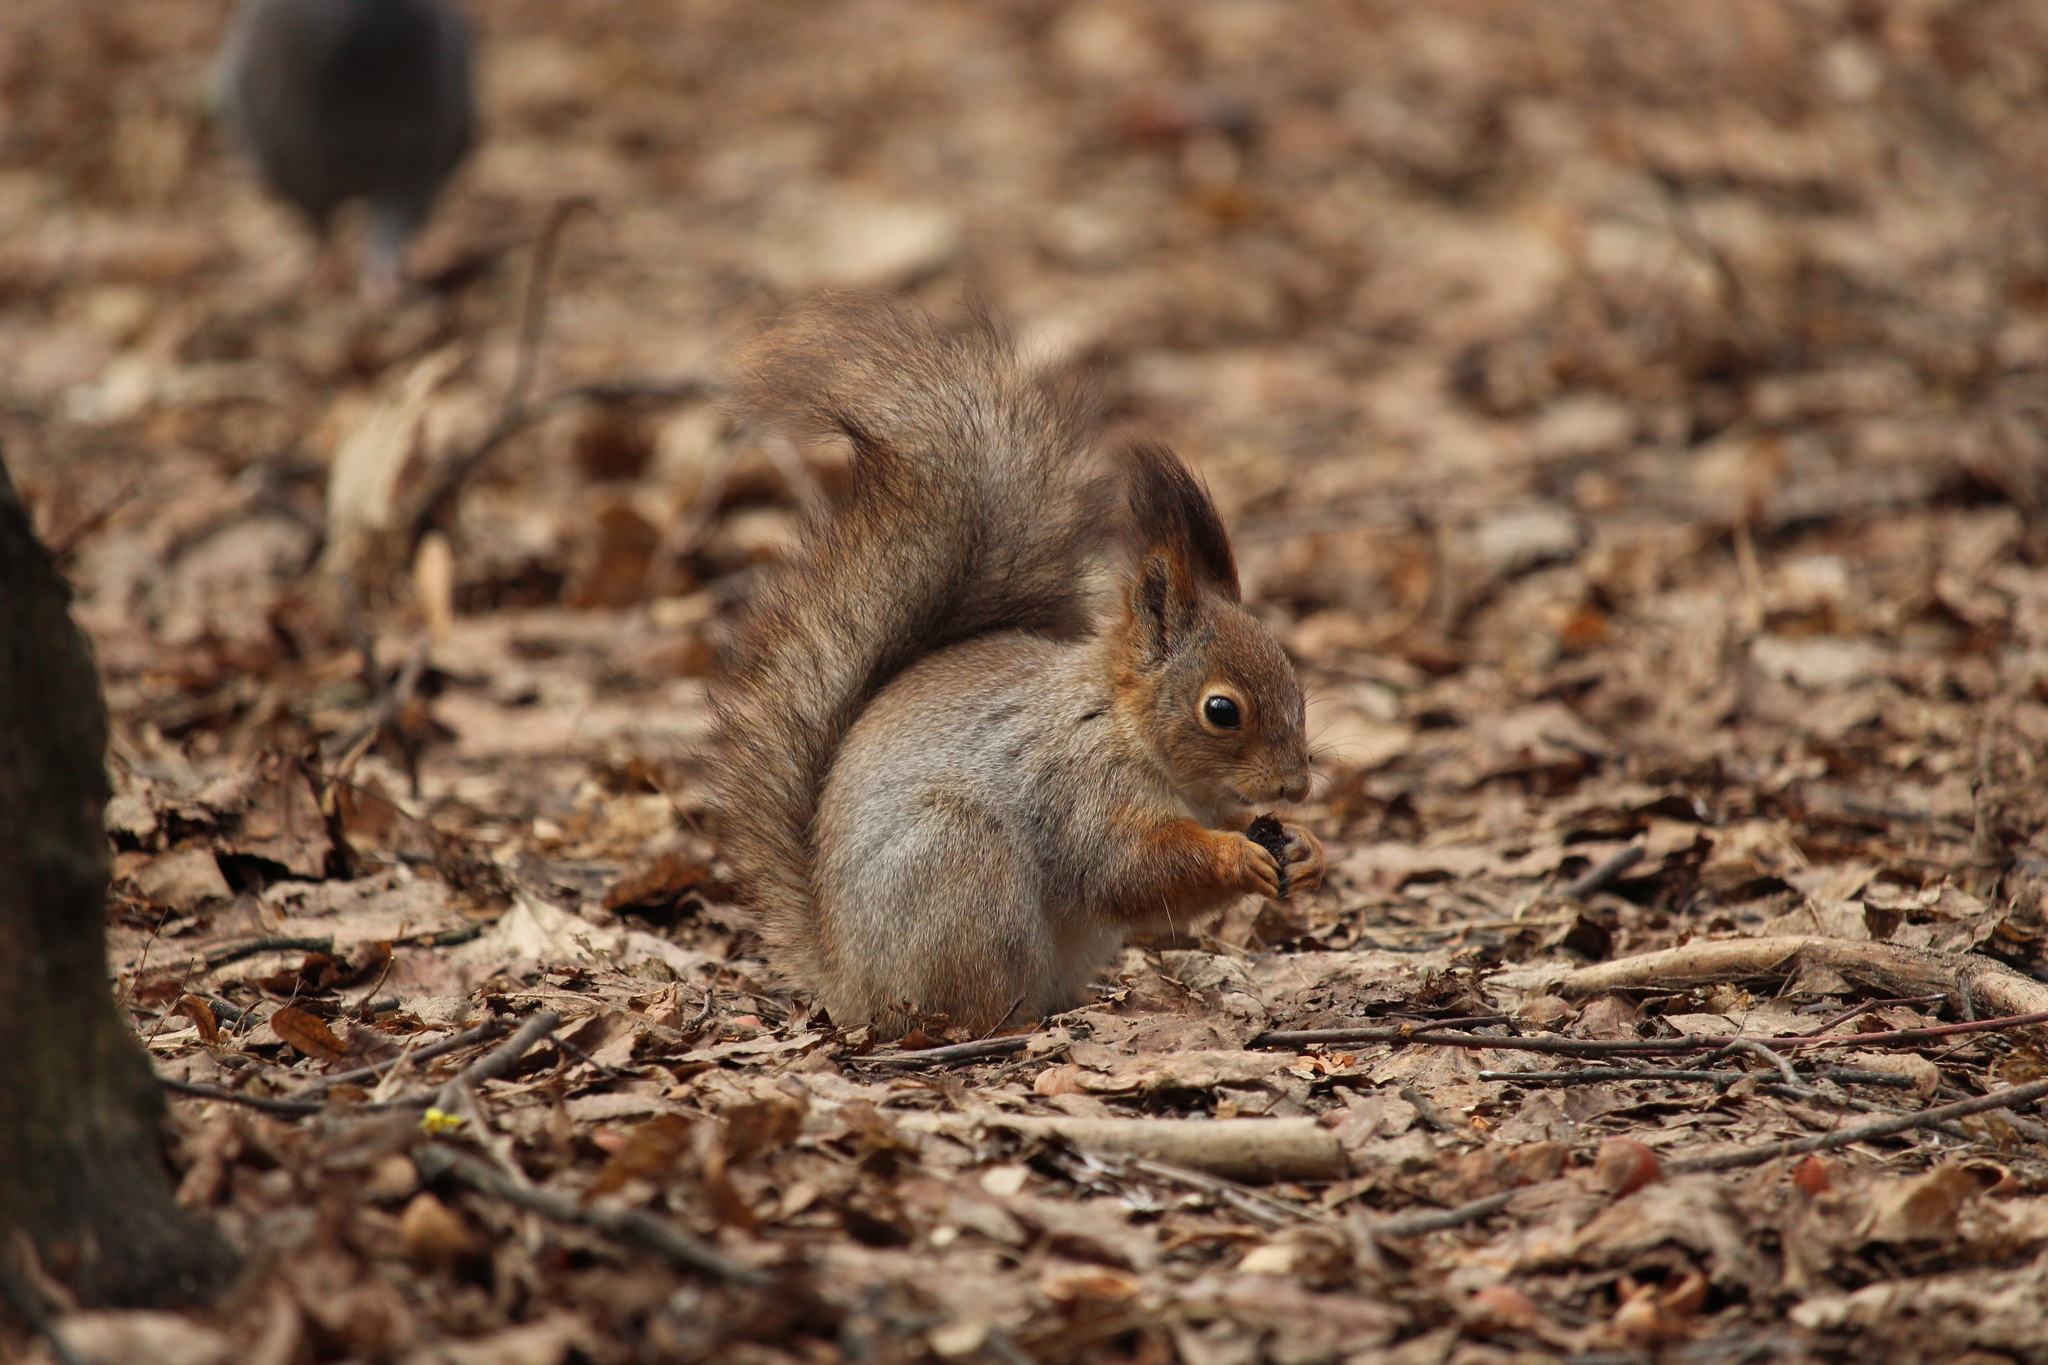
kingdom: Animalia
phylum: Chordata
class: Mammalia
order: Rodentia
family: Sciuridae
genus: Sciurus
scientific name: Sciurus vulgaris
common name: Eurasian red squirrel
